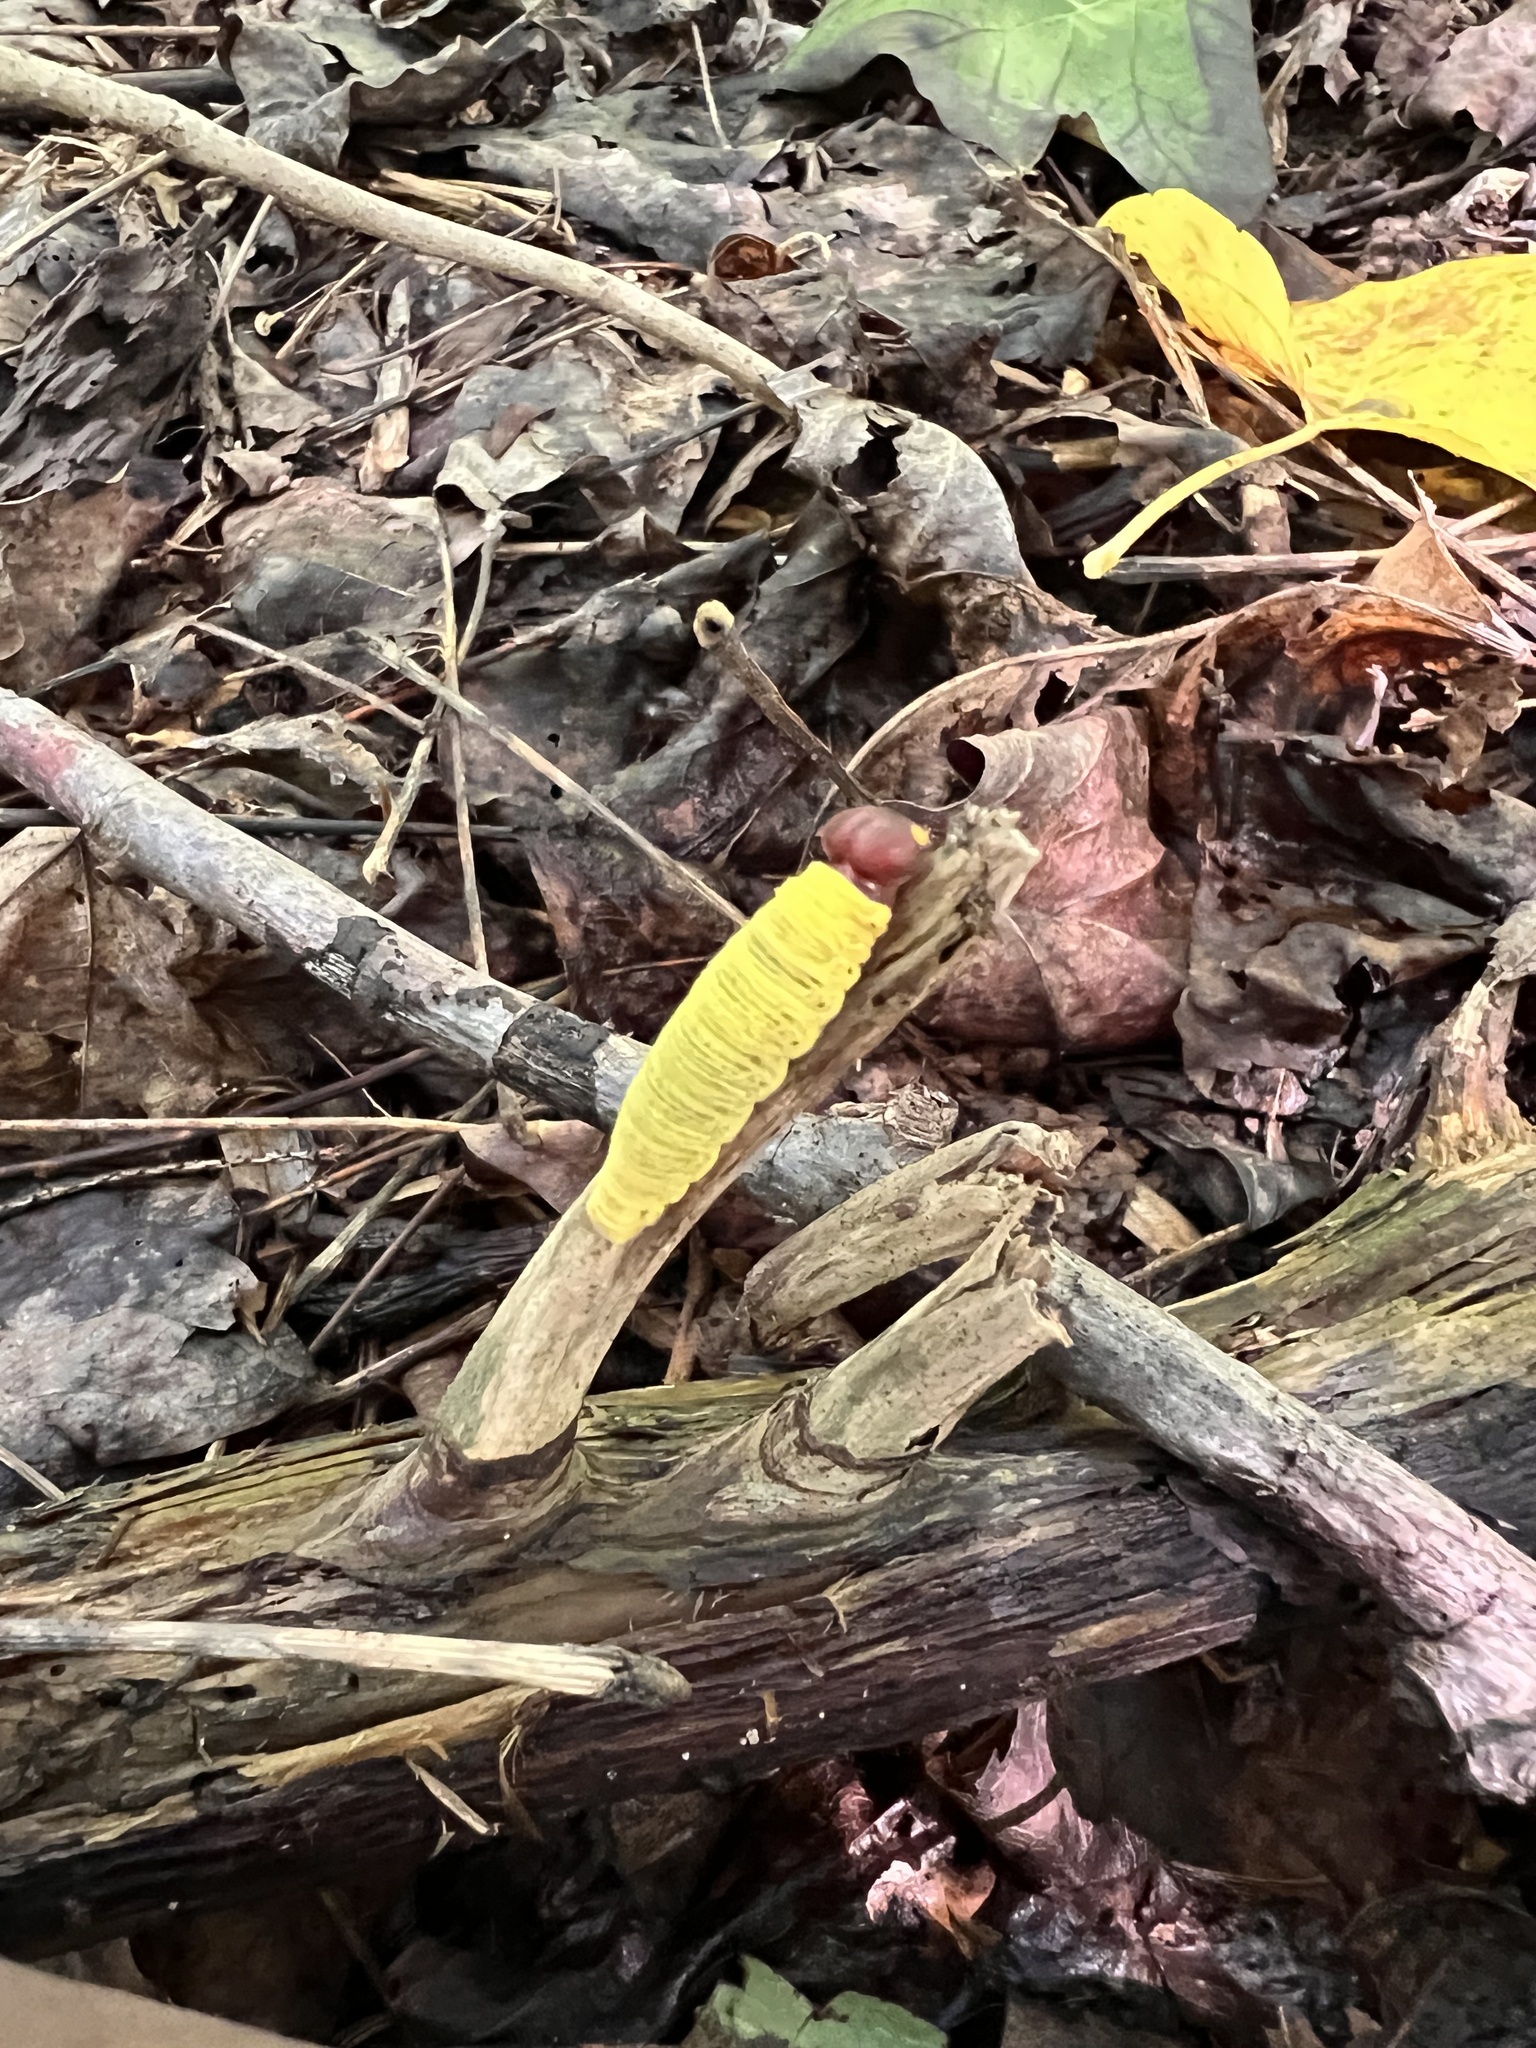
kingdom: Animalia
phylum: Arthropoda
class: Insecta
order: Lepidoptera
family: Hesperiidae
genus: Epargyreus
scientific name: Epargyreus clarus
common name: Silver-spotted skipper
